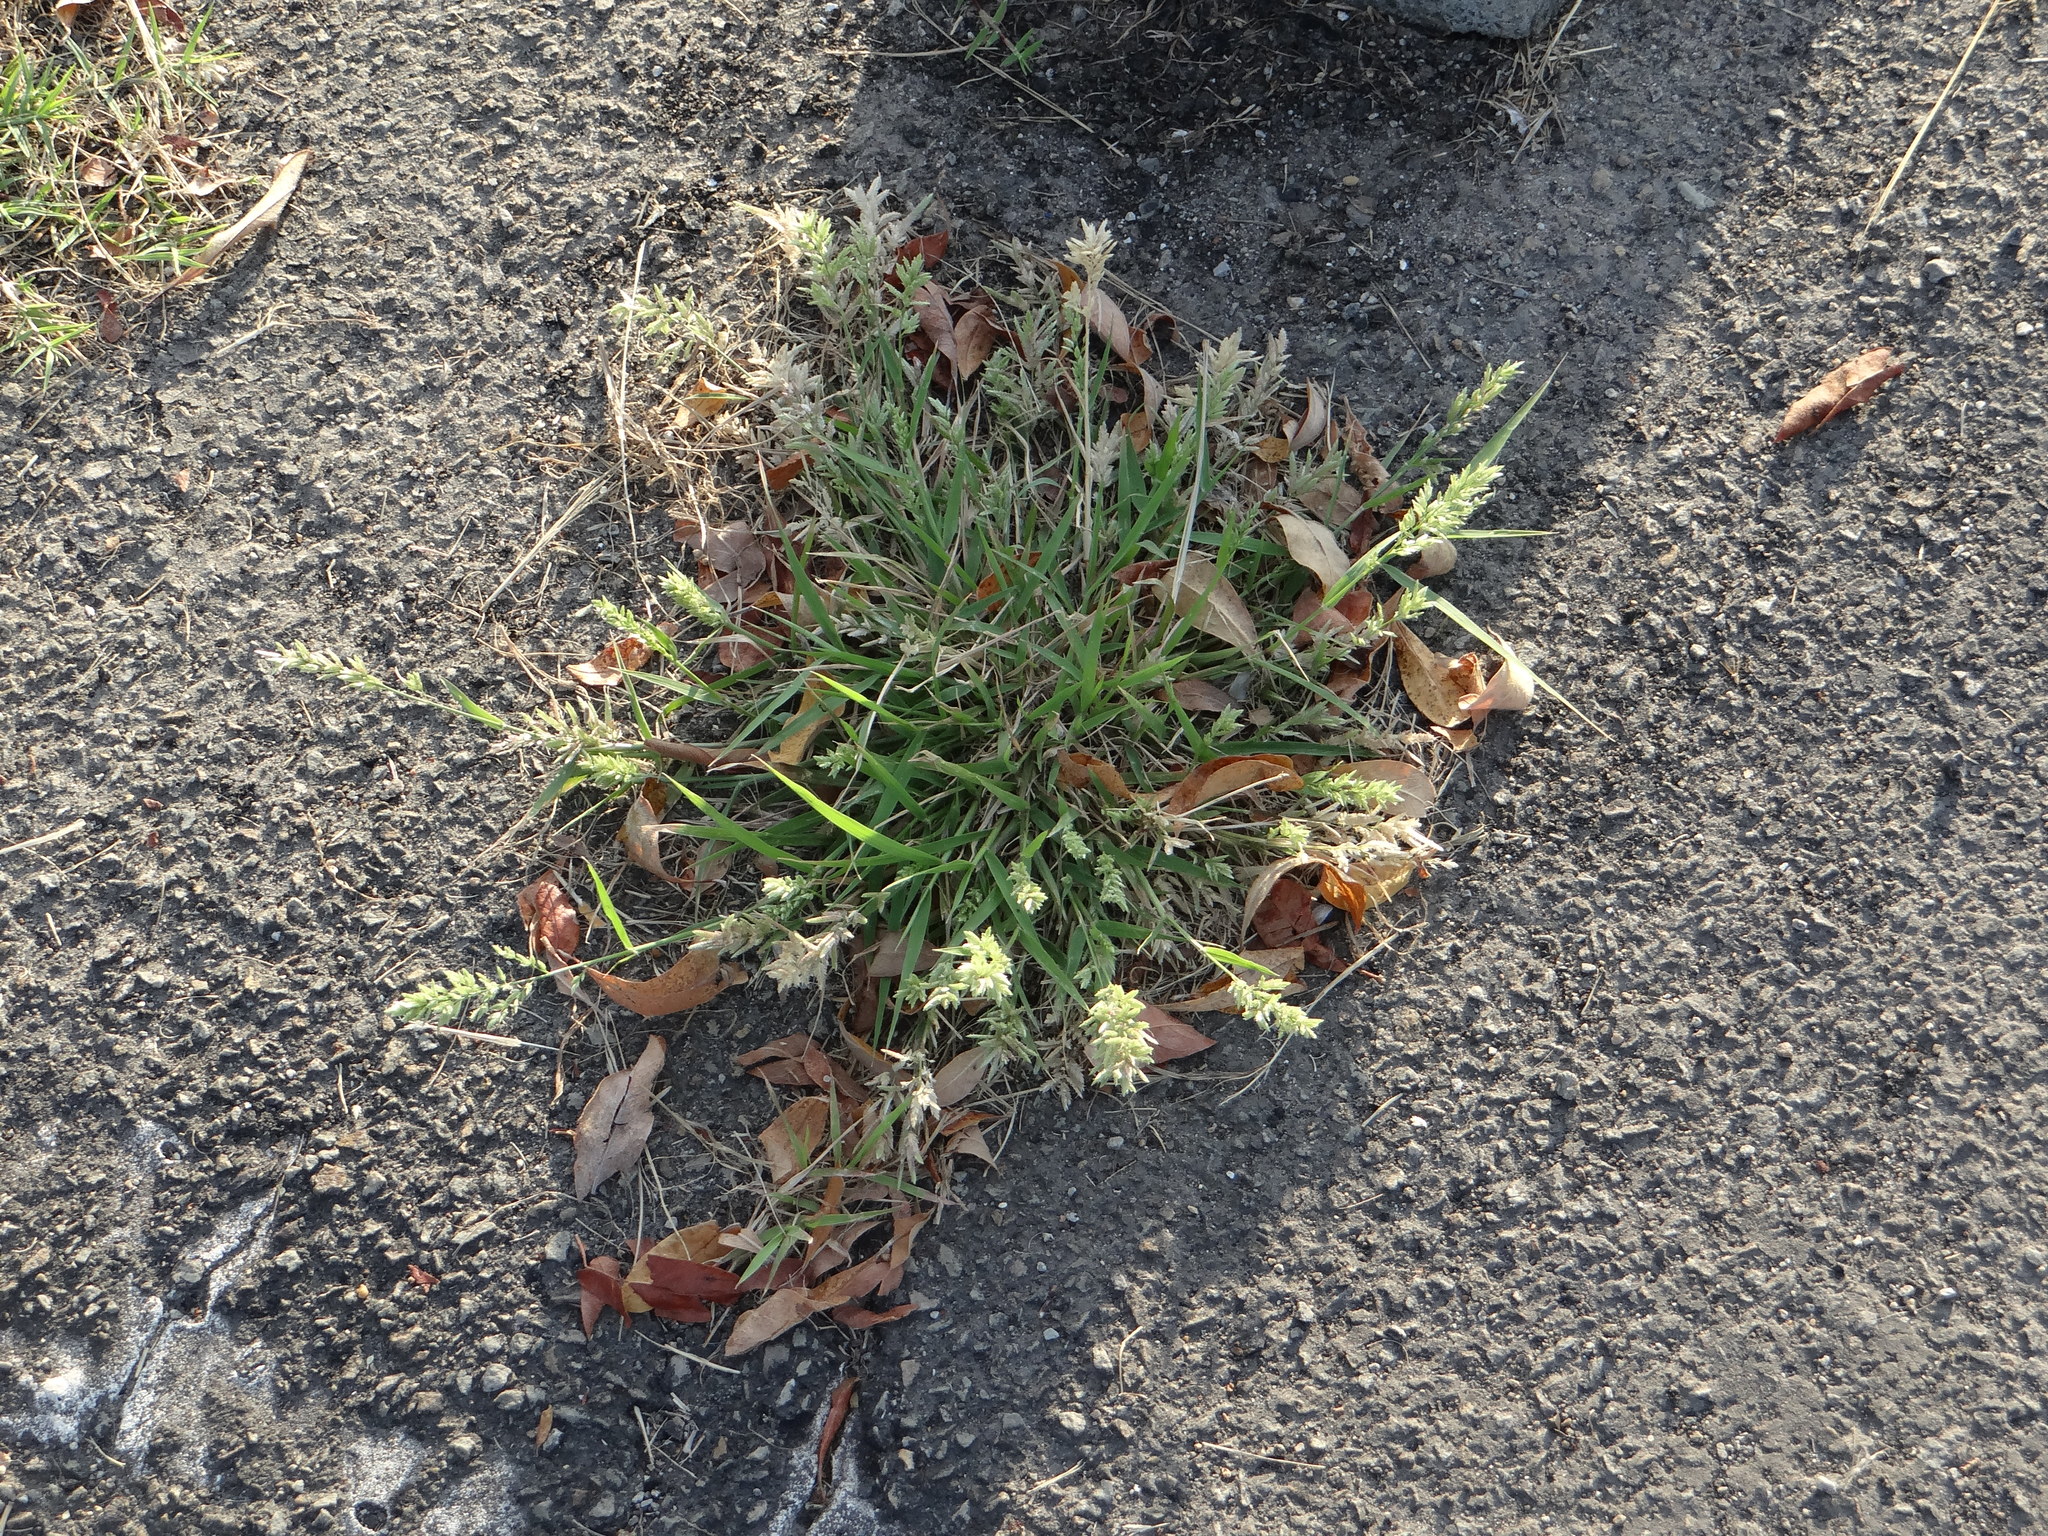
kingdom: Plantae
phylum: Tracheophyta
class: Liliopsida
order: Poales
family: Poaceae
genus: Poa
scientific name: Poa annua
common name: Annual bluegrass
